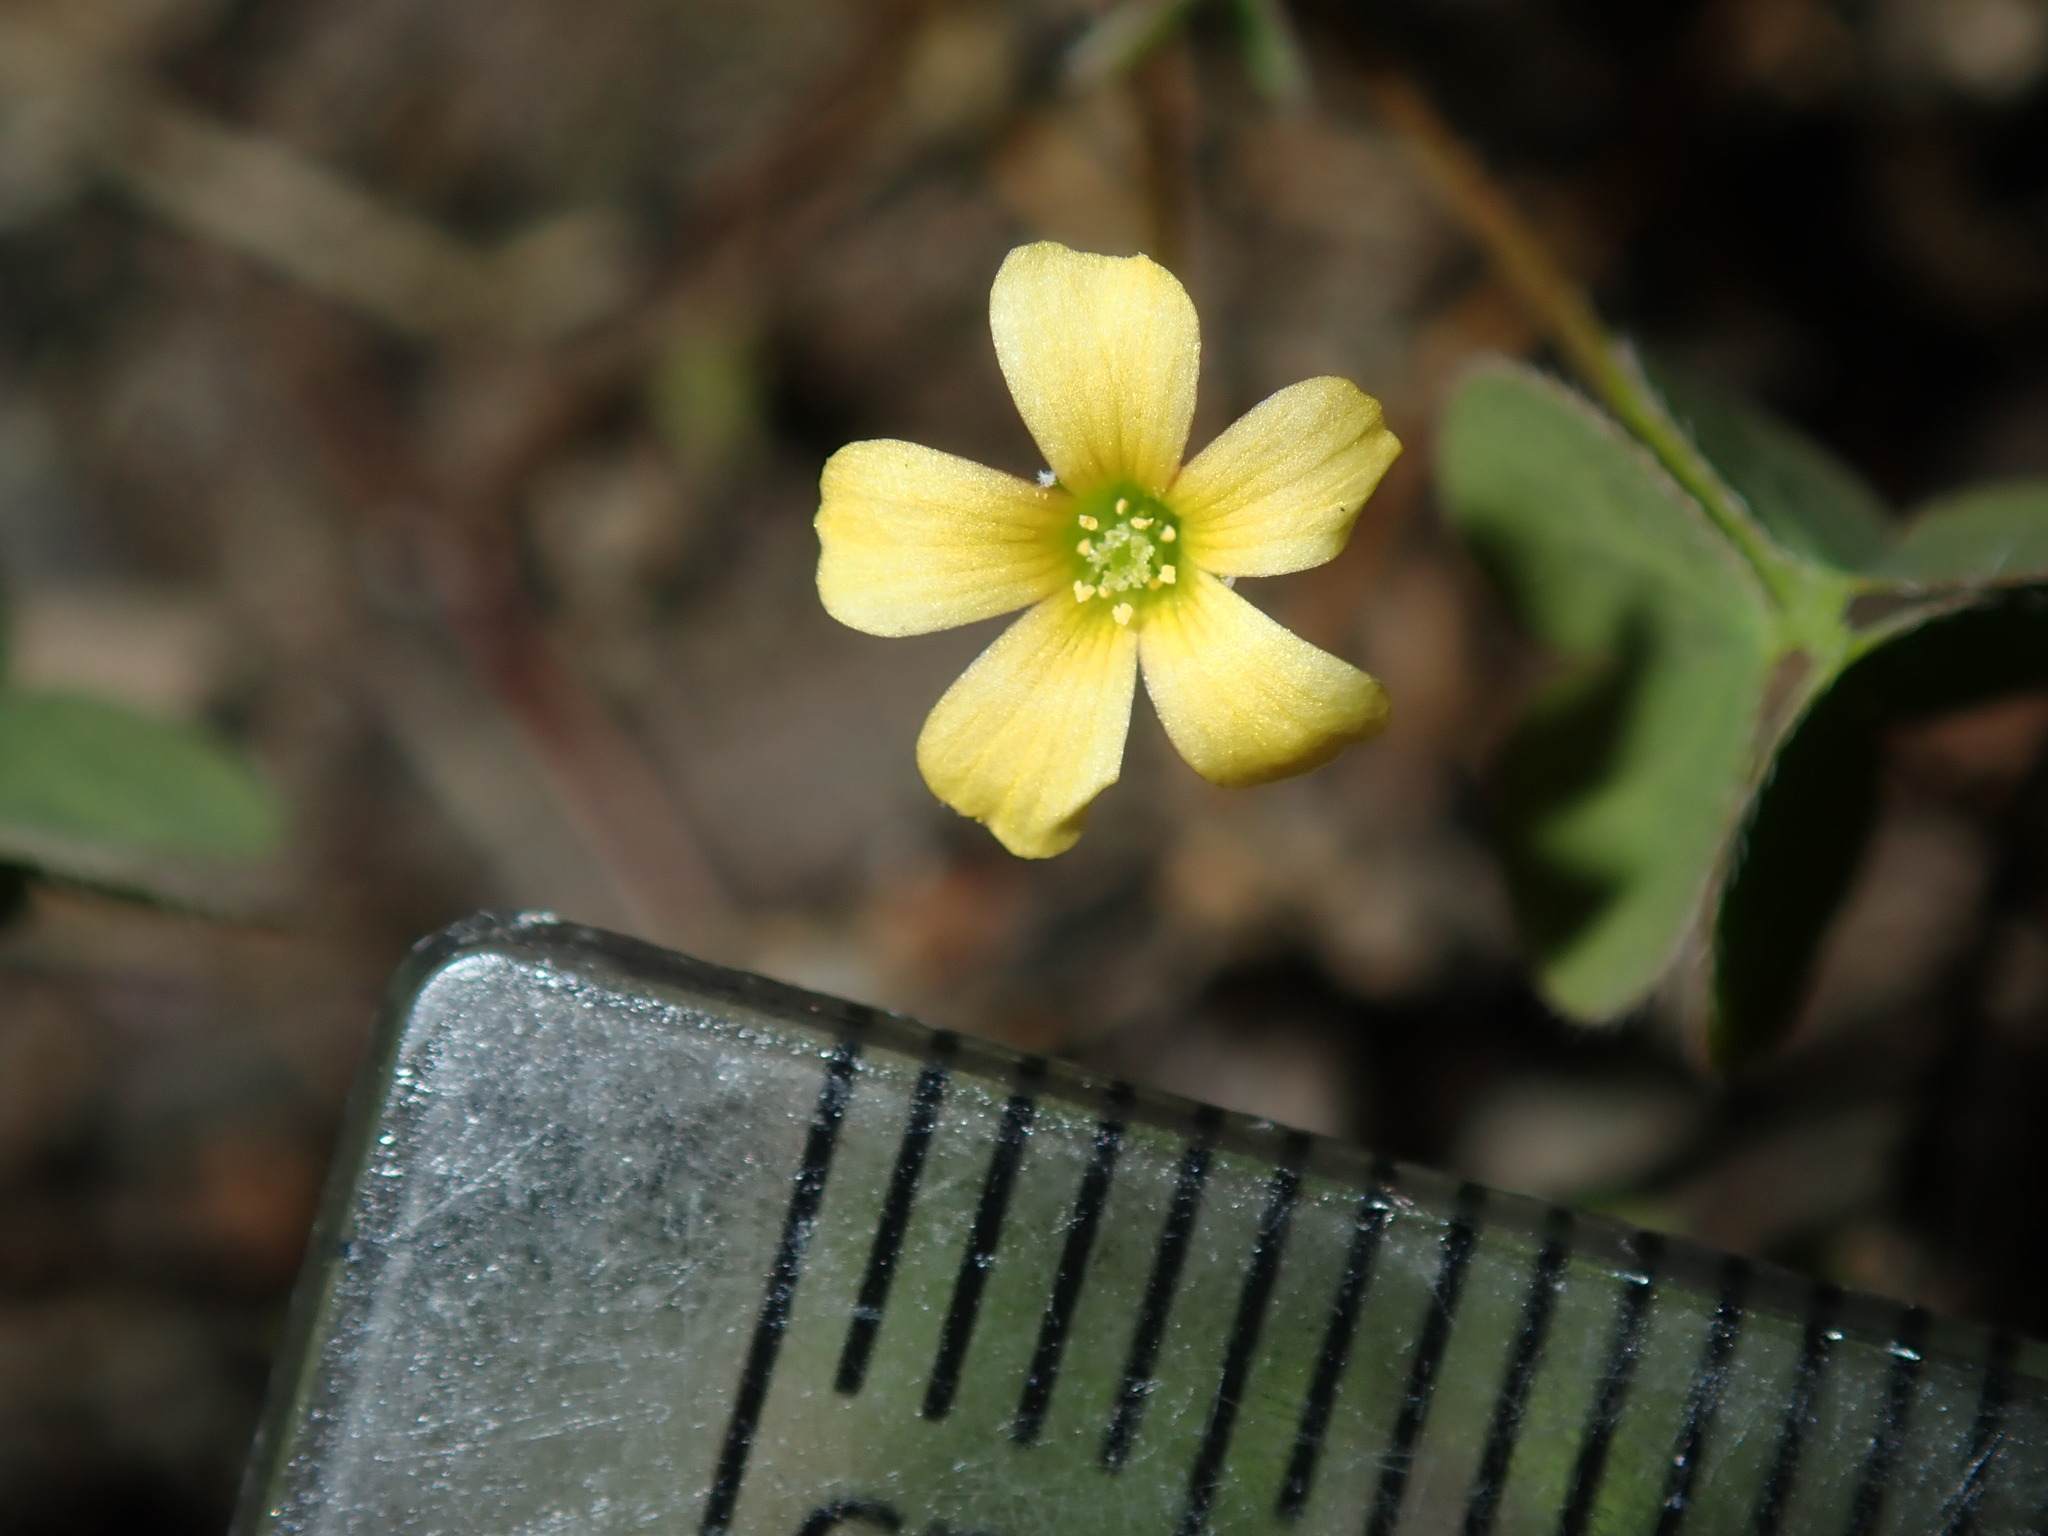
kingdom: Plantae
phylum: Tracheophyta
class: Magnoliopsida
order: Oxalidales
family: Oxalidaceae
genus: Oxalis
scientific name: Oxalis corniculata
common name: Procumbent yellow-sorrel
